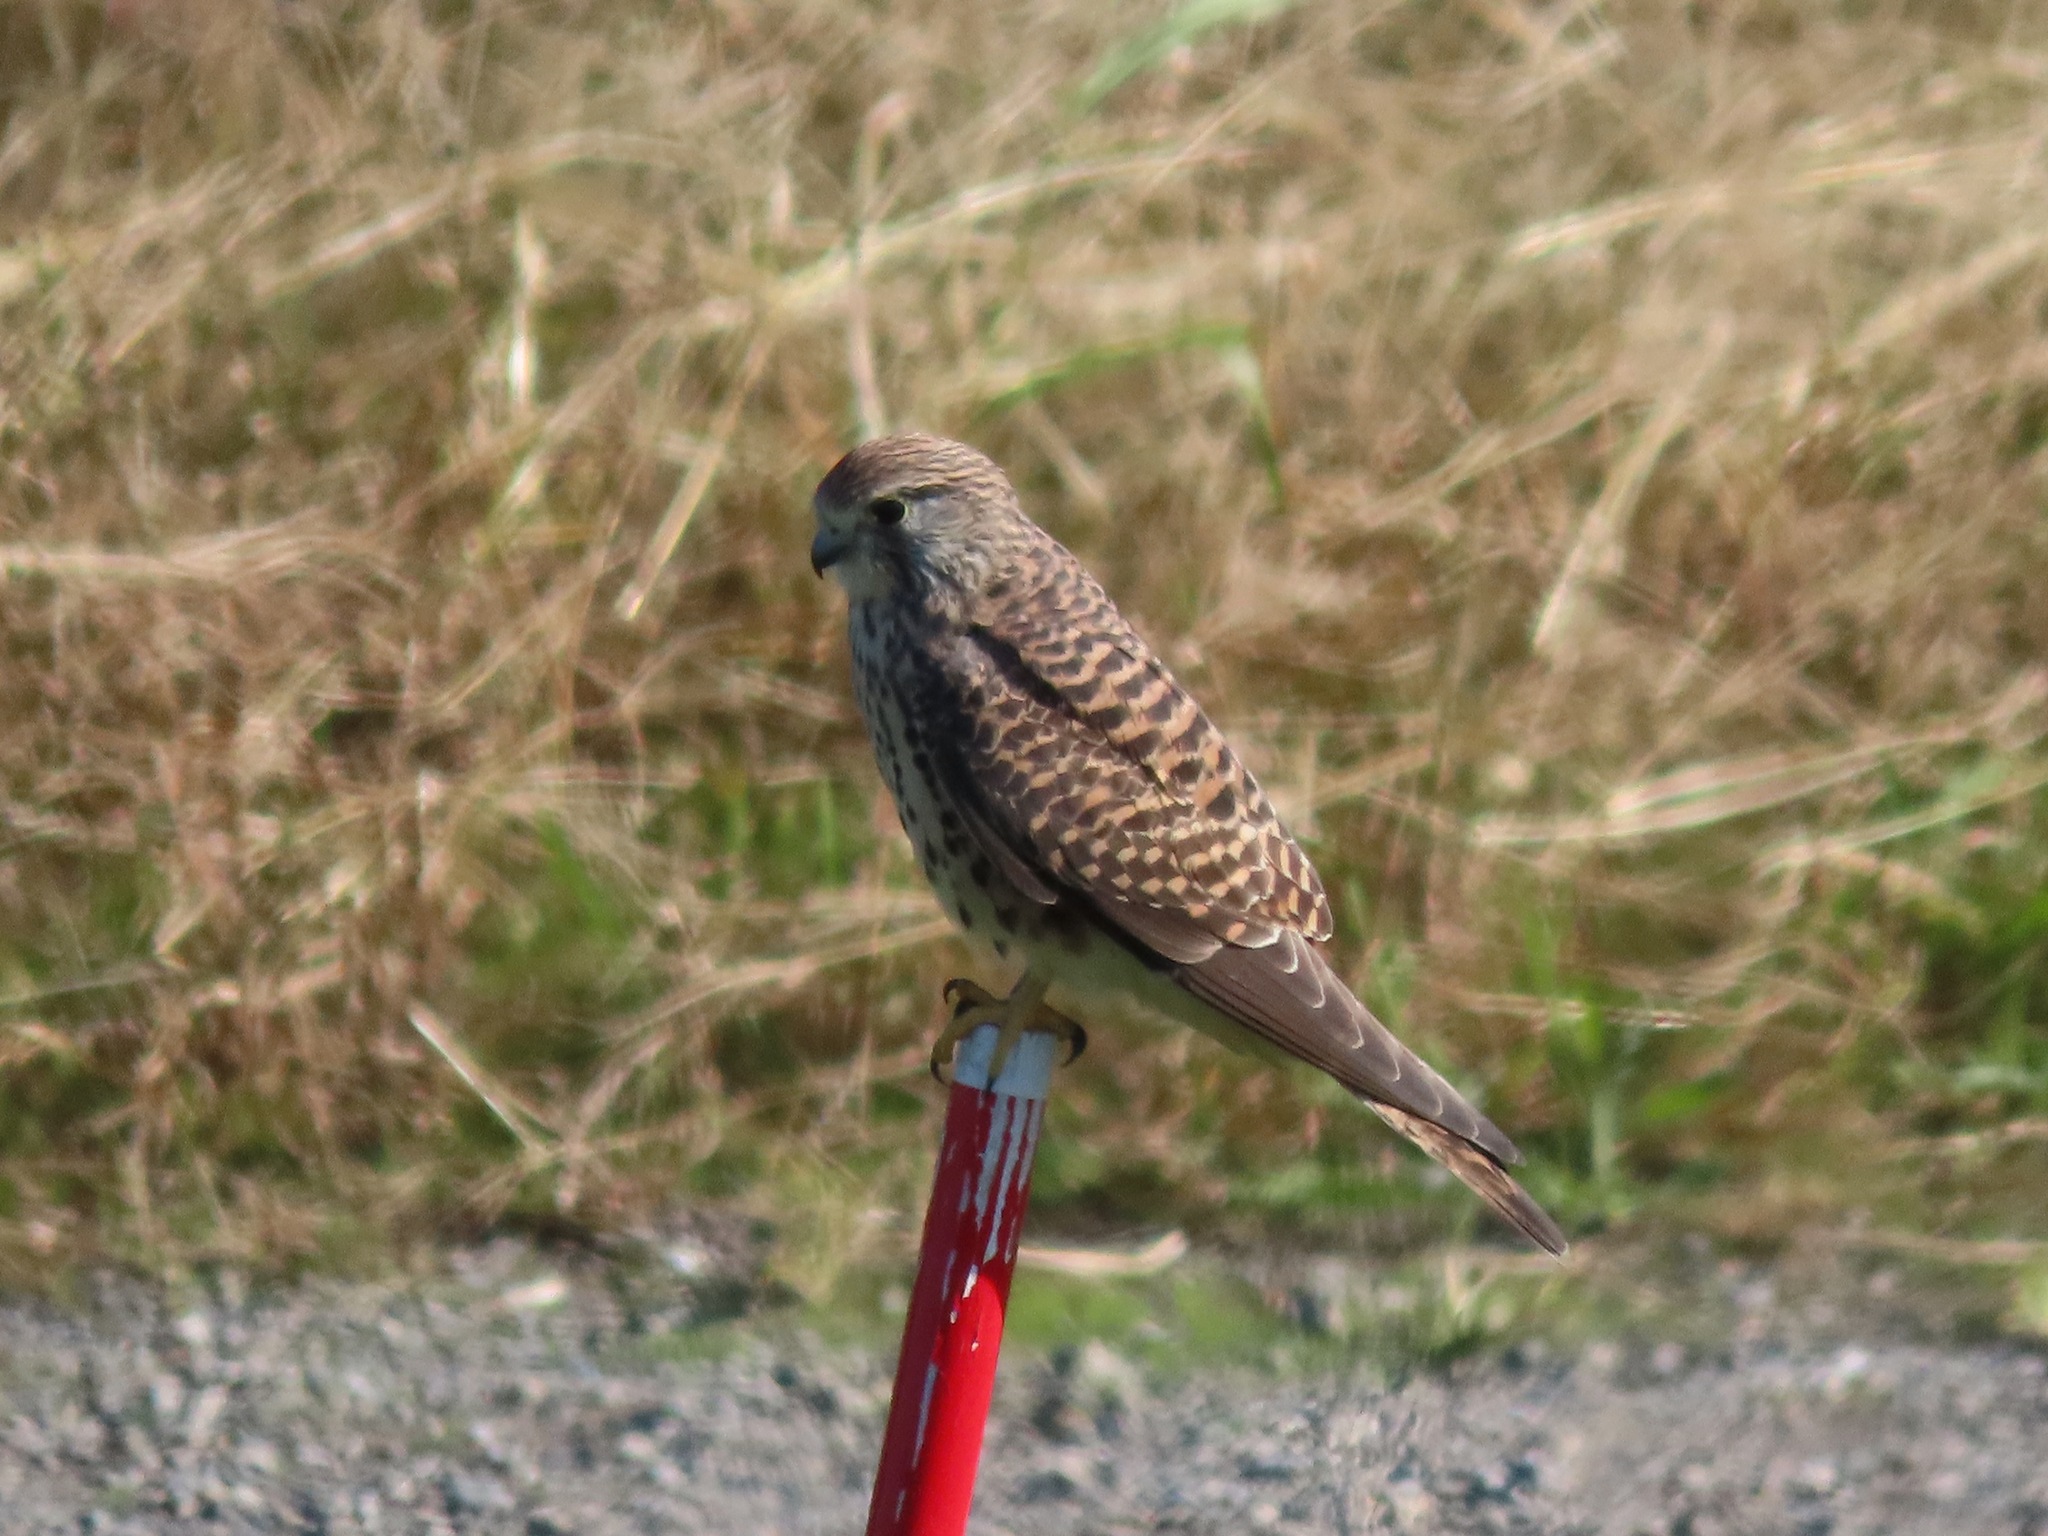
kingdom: Animalia
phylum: Chordata
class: Aves
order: Falconiformes
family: Falconidae
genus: Falco
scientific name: Falco tinnunculus
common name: Common kestrel
